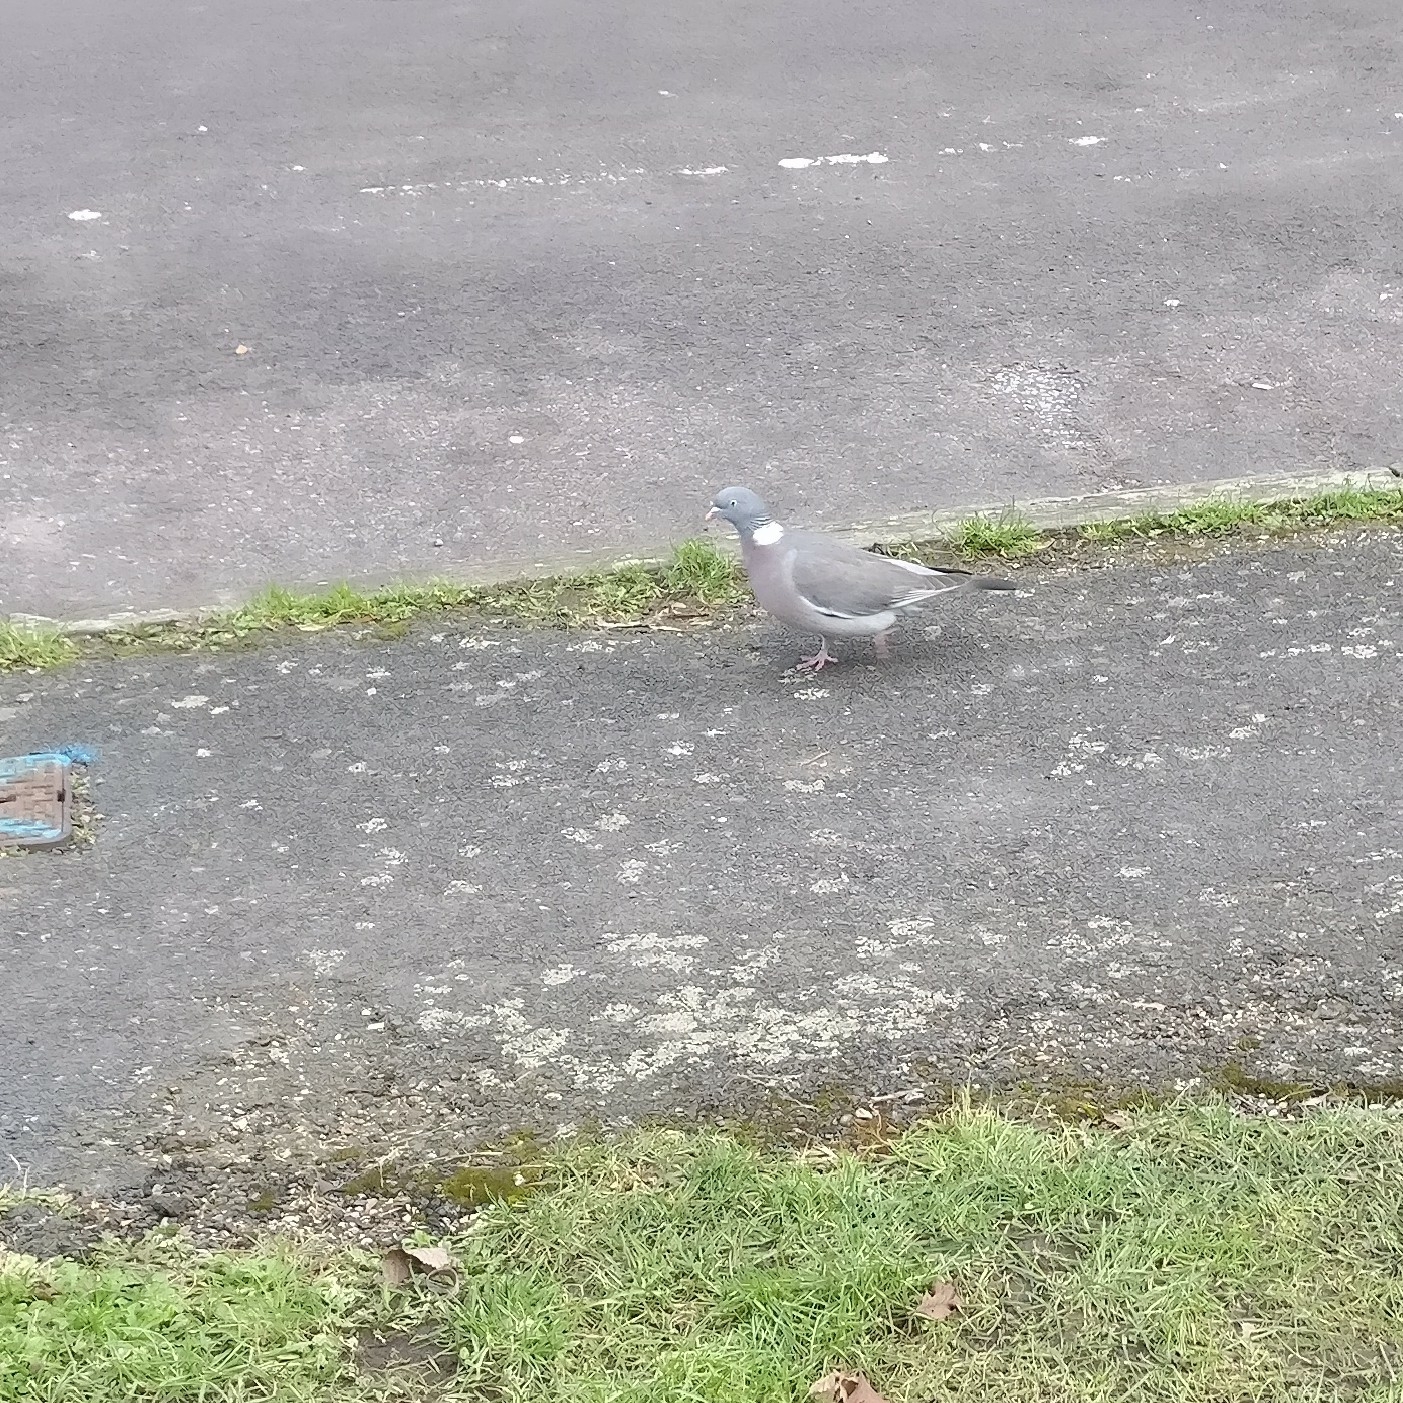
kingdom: Animalia
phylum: Chordata
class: Aves
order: Columbiformes
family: Columbidae
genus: Columba
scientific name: Columba palumbus
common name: Common wood pigeon
